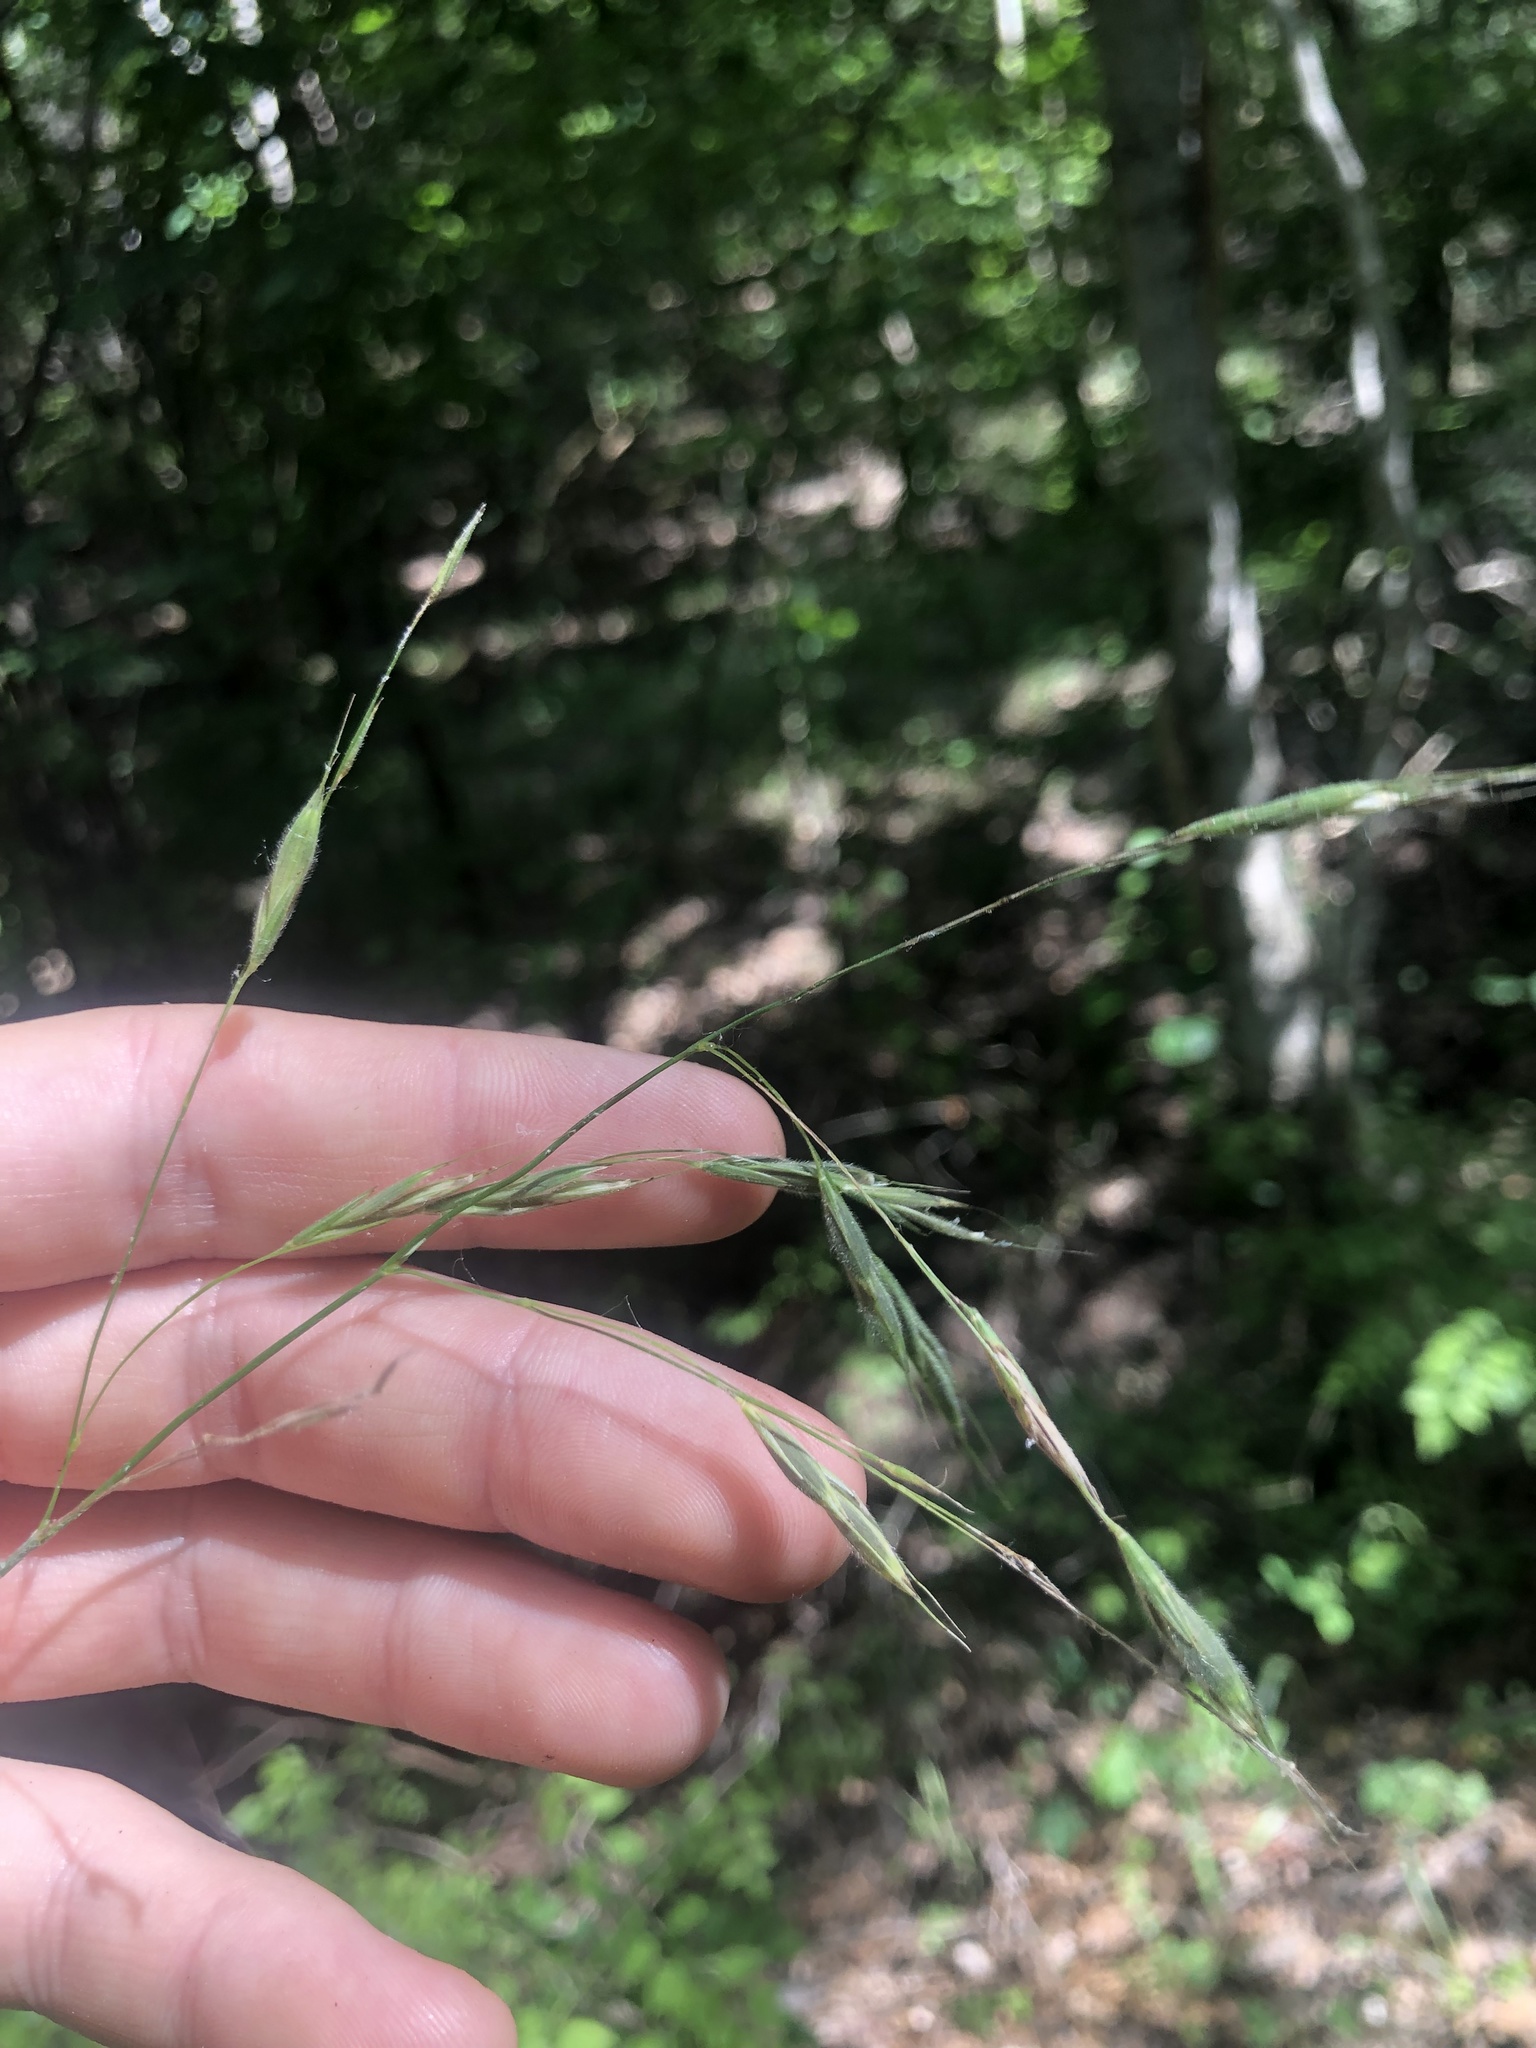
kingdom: Plantae
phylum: Tracheophyta
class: Liliopsida
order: Poales
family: Poaceae
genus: Bromus
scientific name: Bromus pubescens
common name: Hairy wood brome grass
